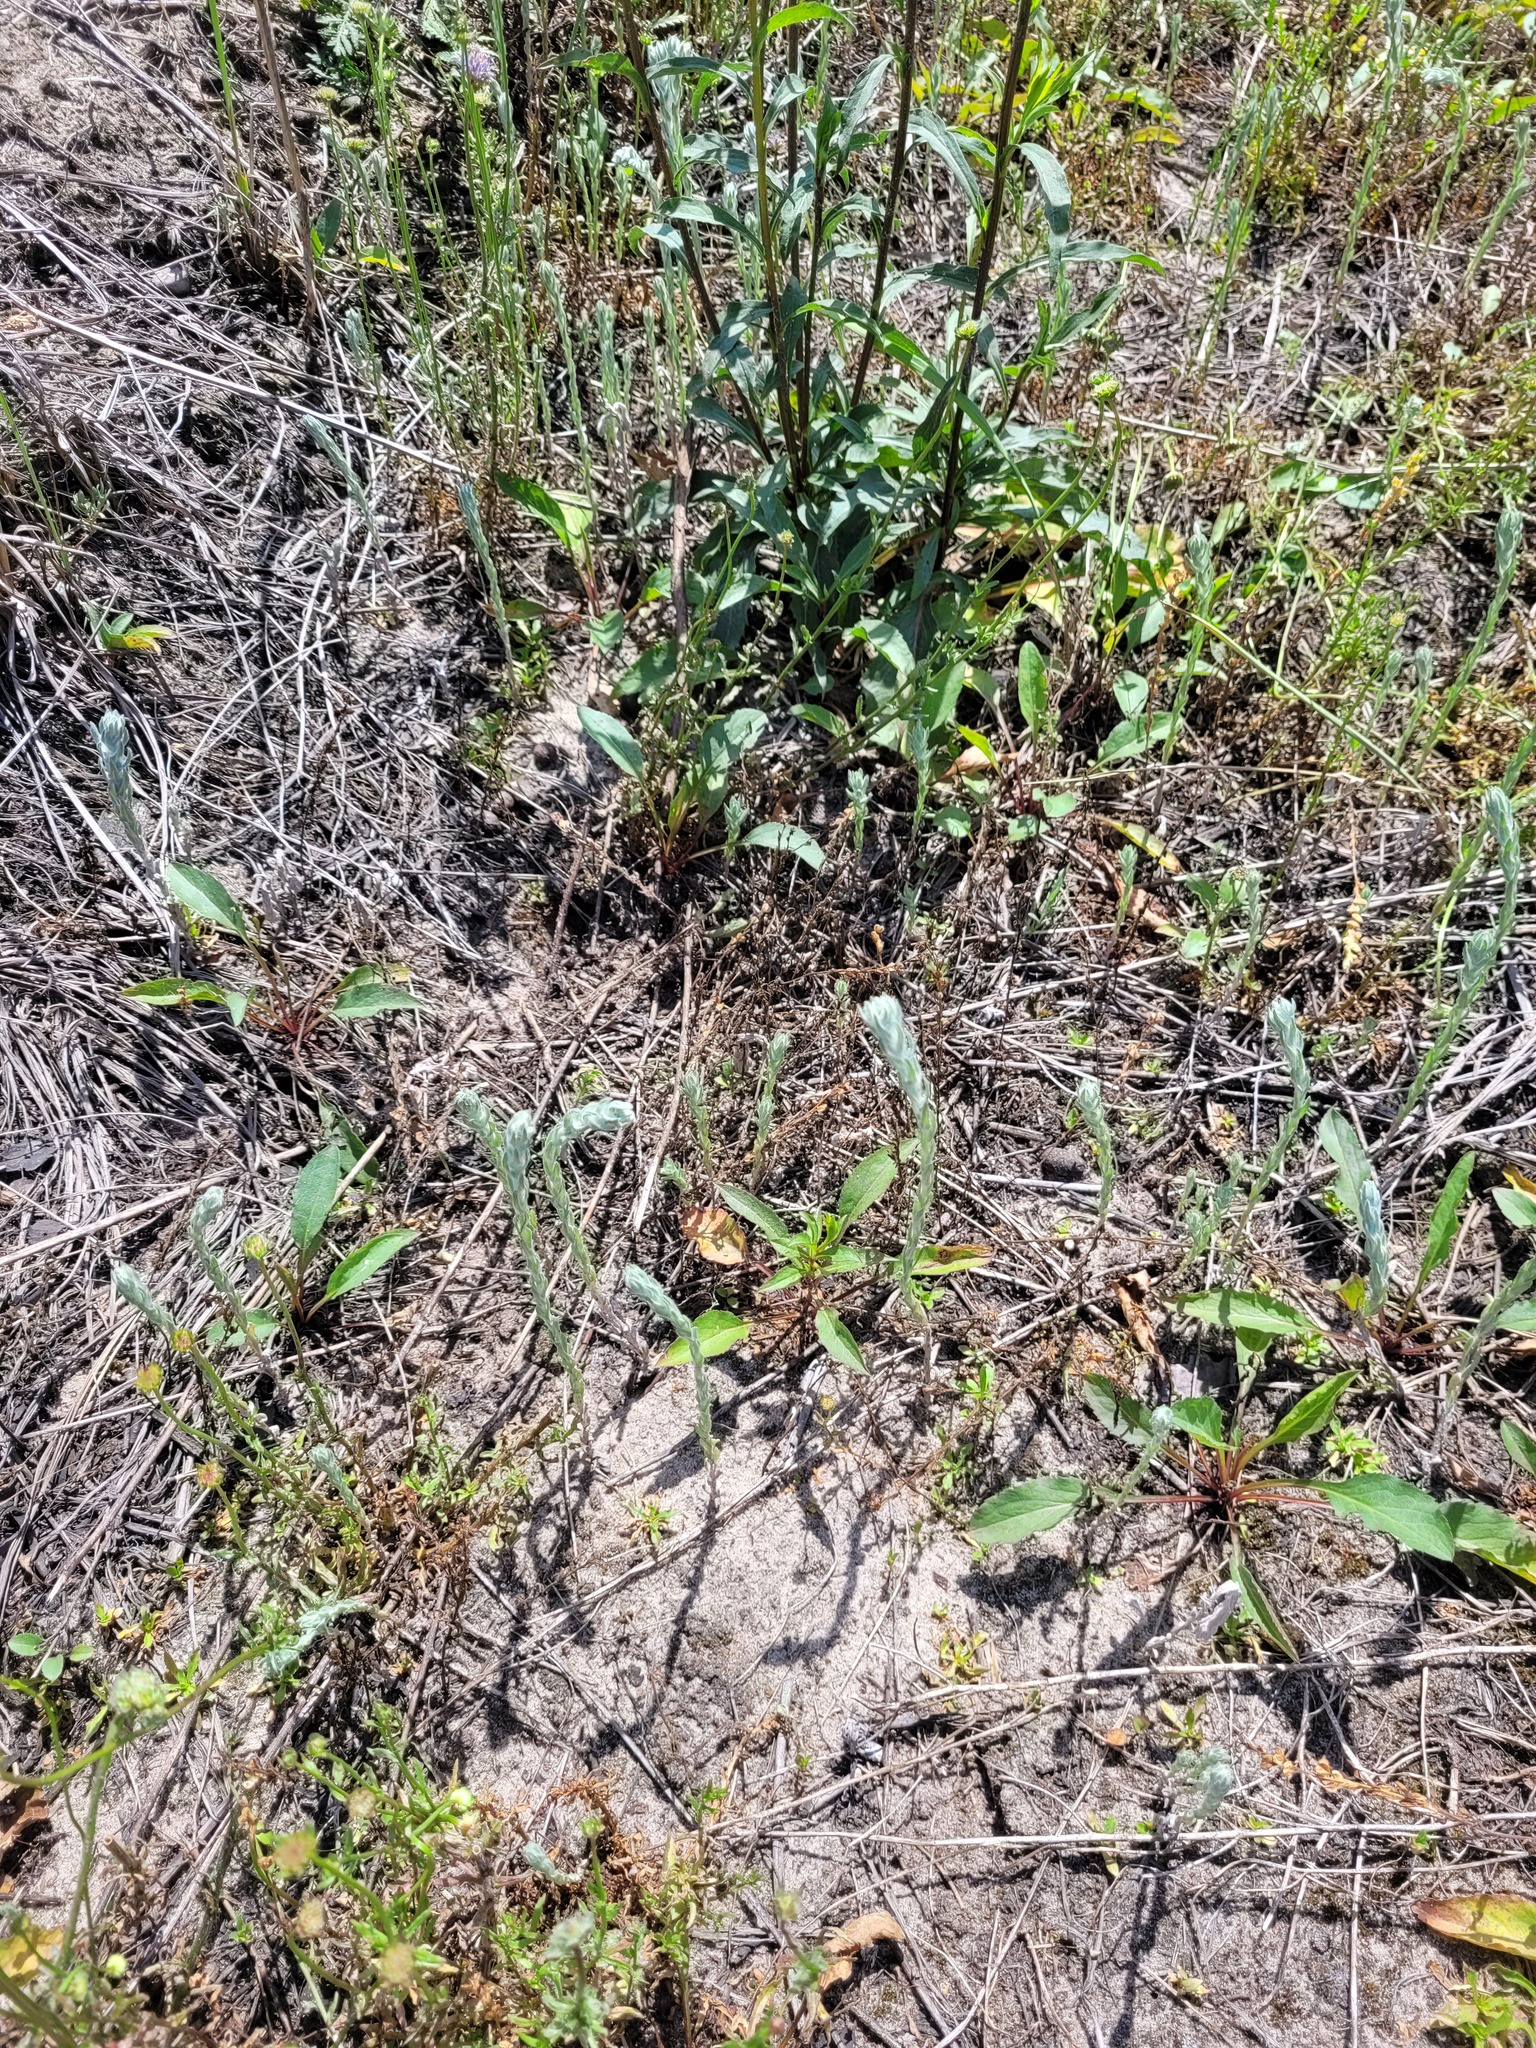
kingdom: Plantae
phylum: Tracheophyta
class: Magnoliopsida
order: Asterales
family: Asteraceae
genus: Filago
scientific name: Filago arvensis
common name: Field cudweed
